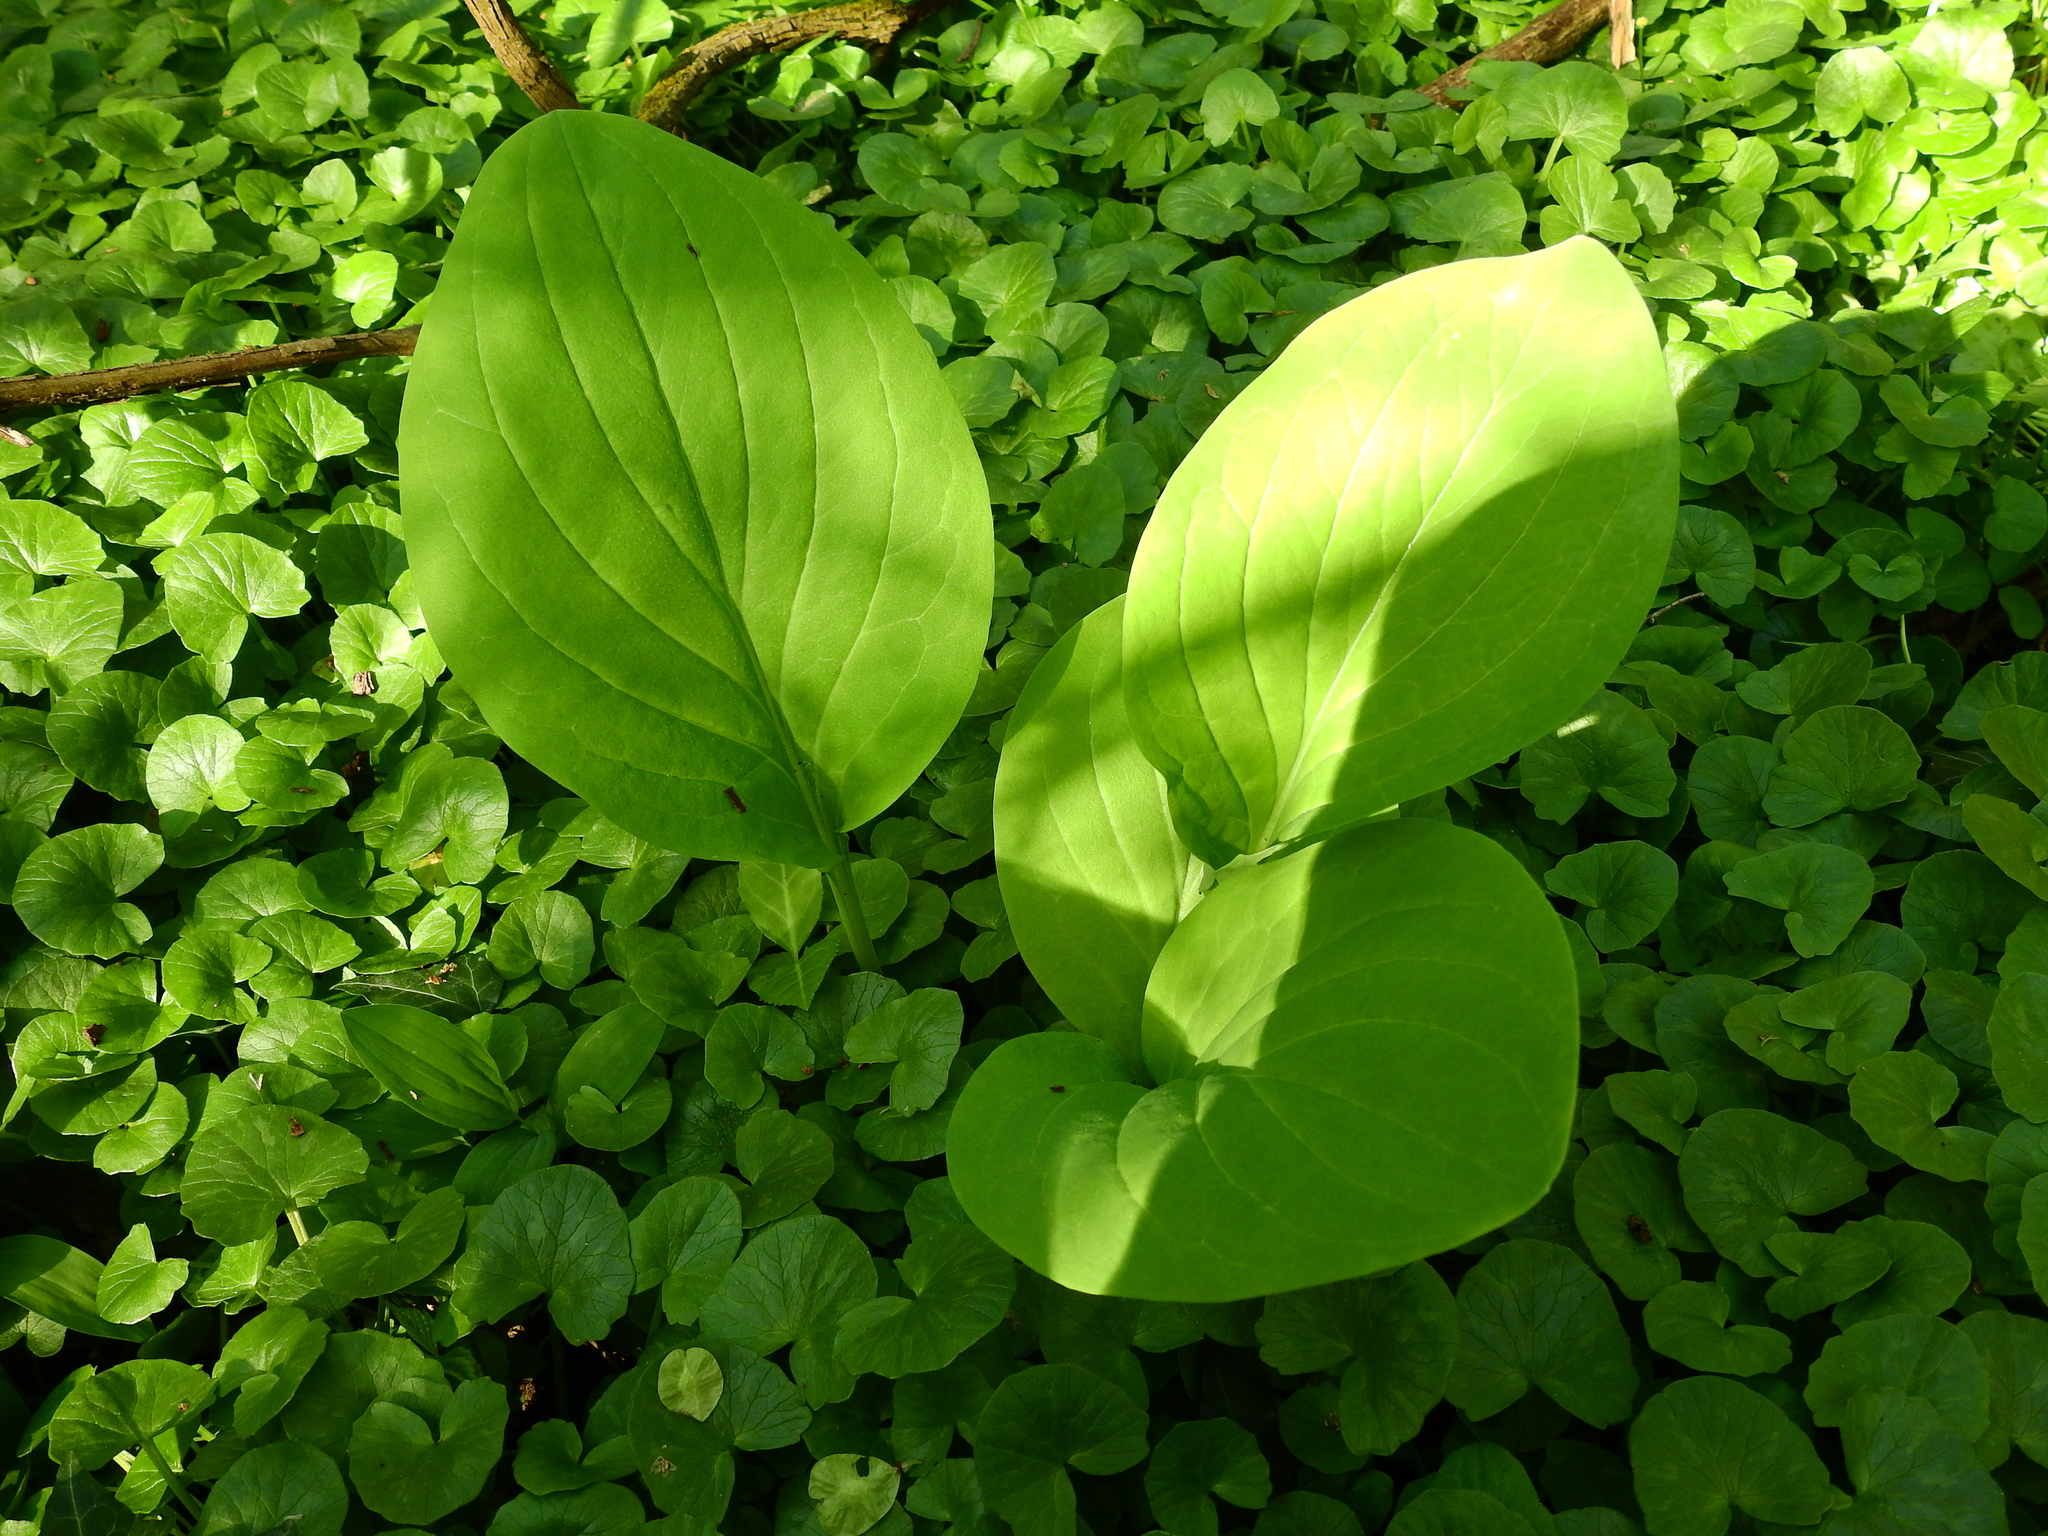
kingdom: Plantae
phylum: Tracheophyta
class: Magnoliopsida
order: Boraginales
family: Boraginaceae
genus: Mertensia
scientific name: Mertensia virginica
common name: Virginia bluebells
